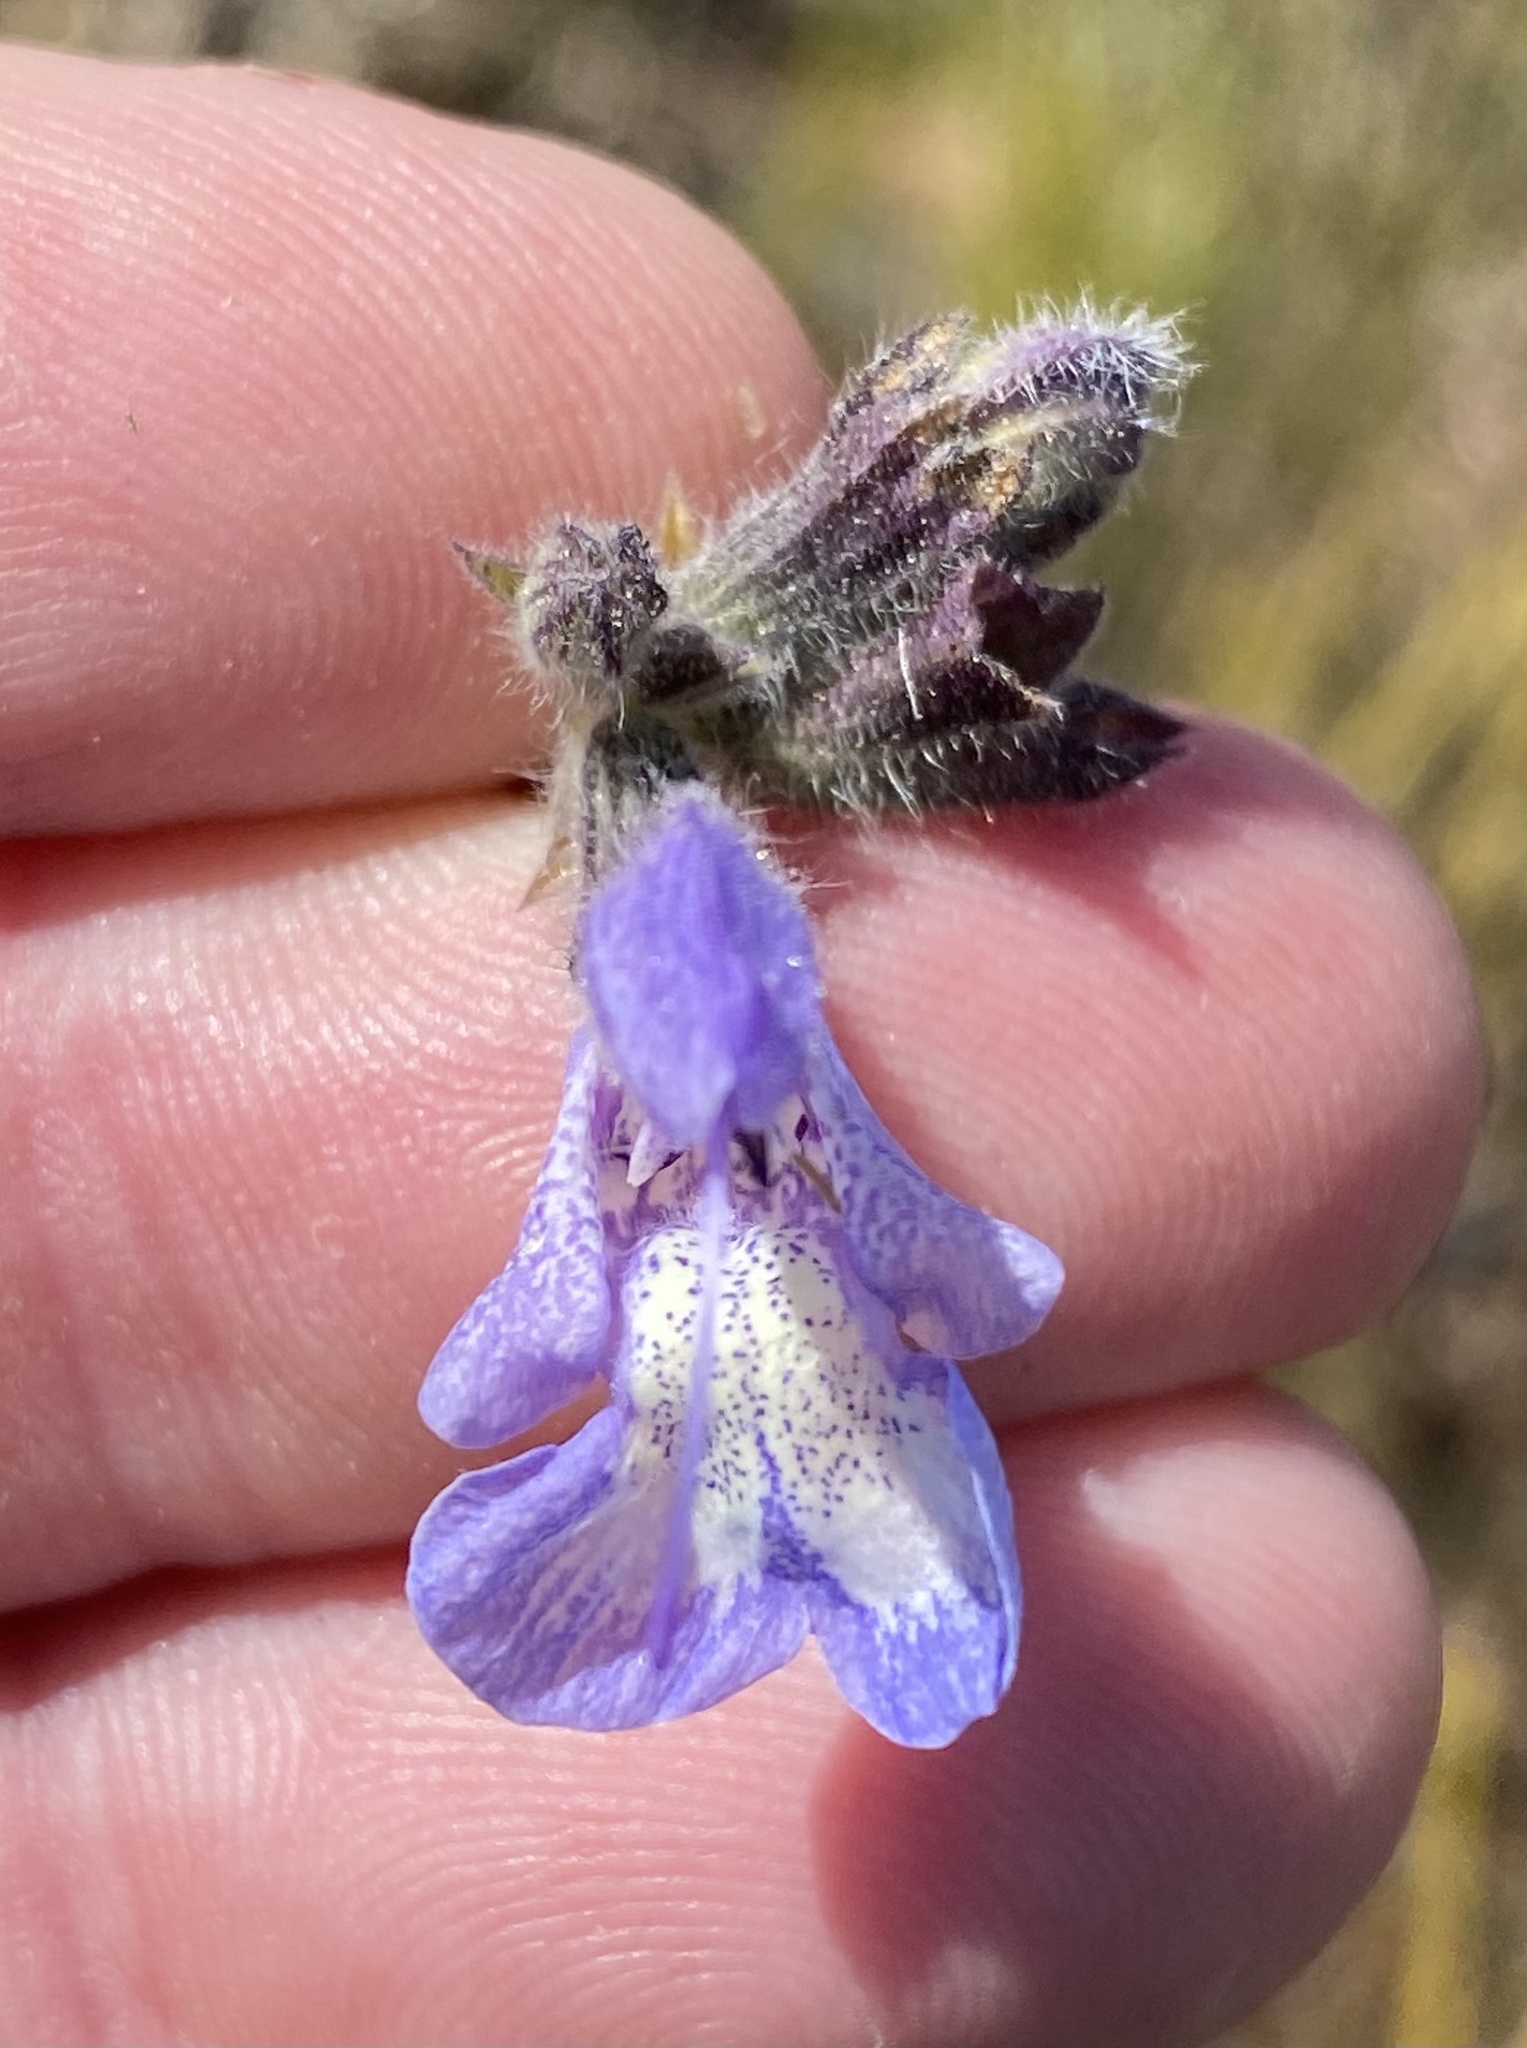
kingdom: Plantae
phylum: Tracheophyta
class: Magnoliopsida
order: Lamiales
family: Lamiaceae
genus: Salvia
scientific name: Salvia africana
